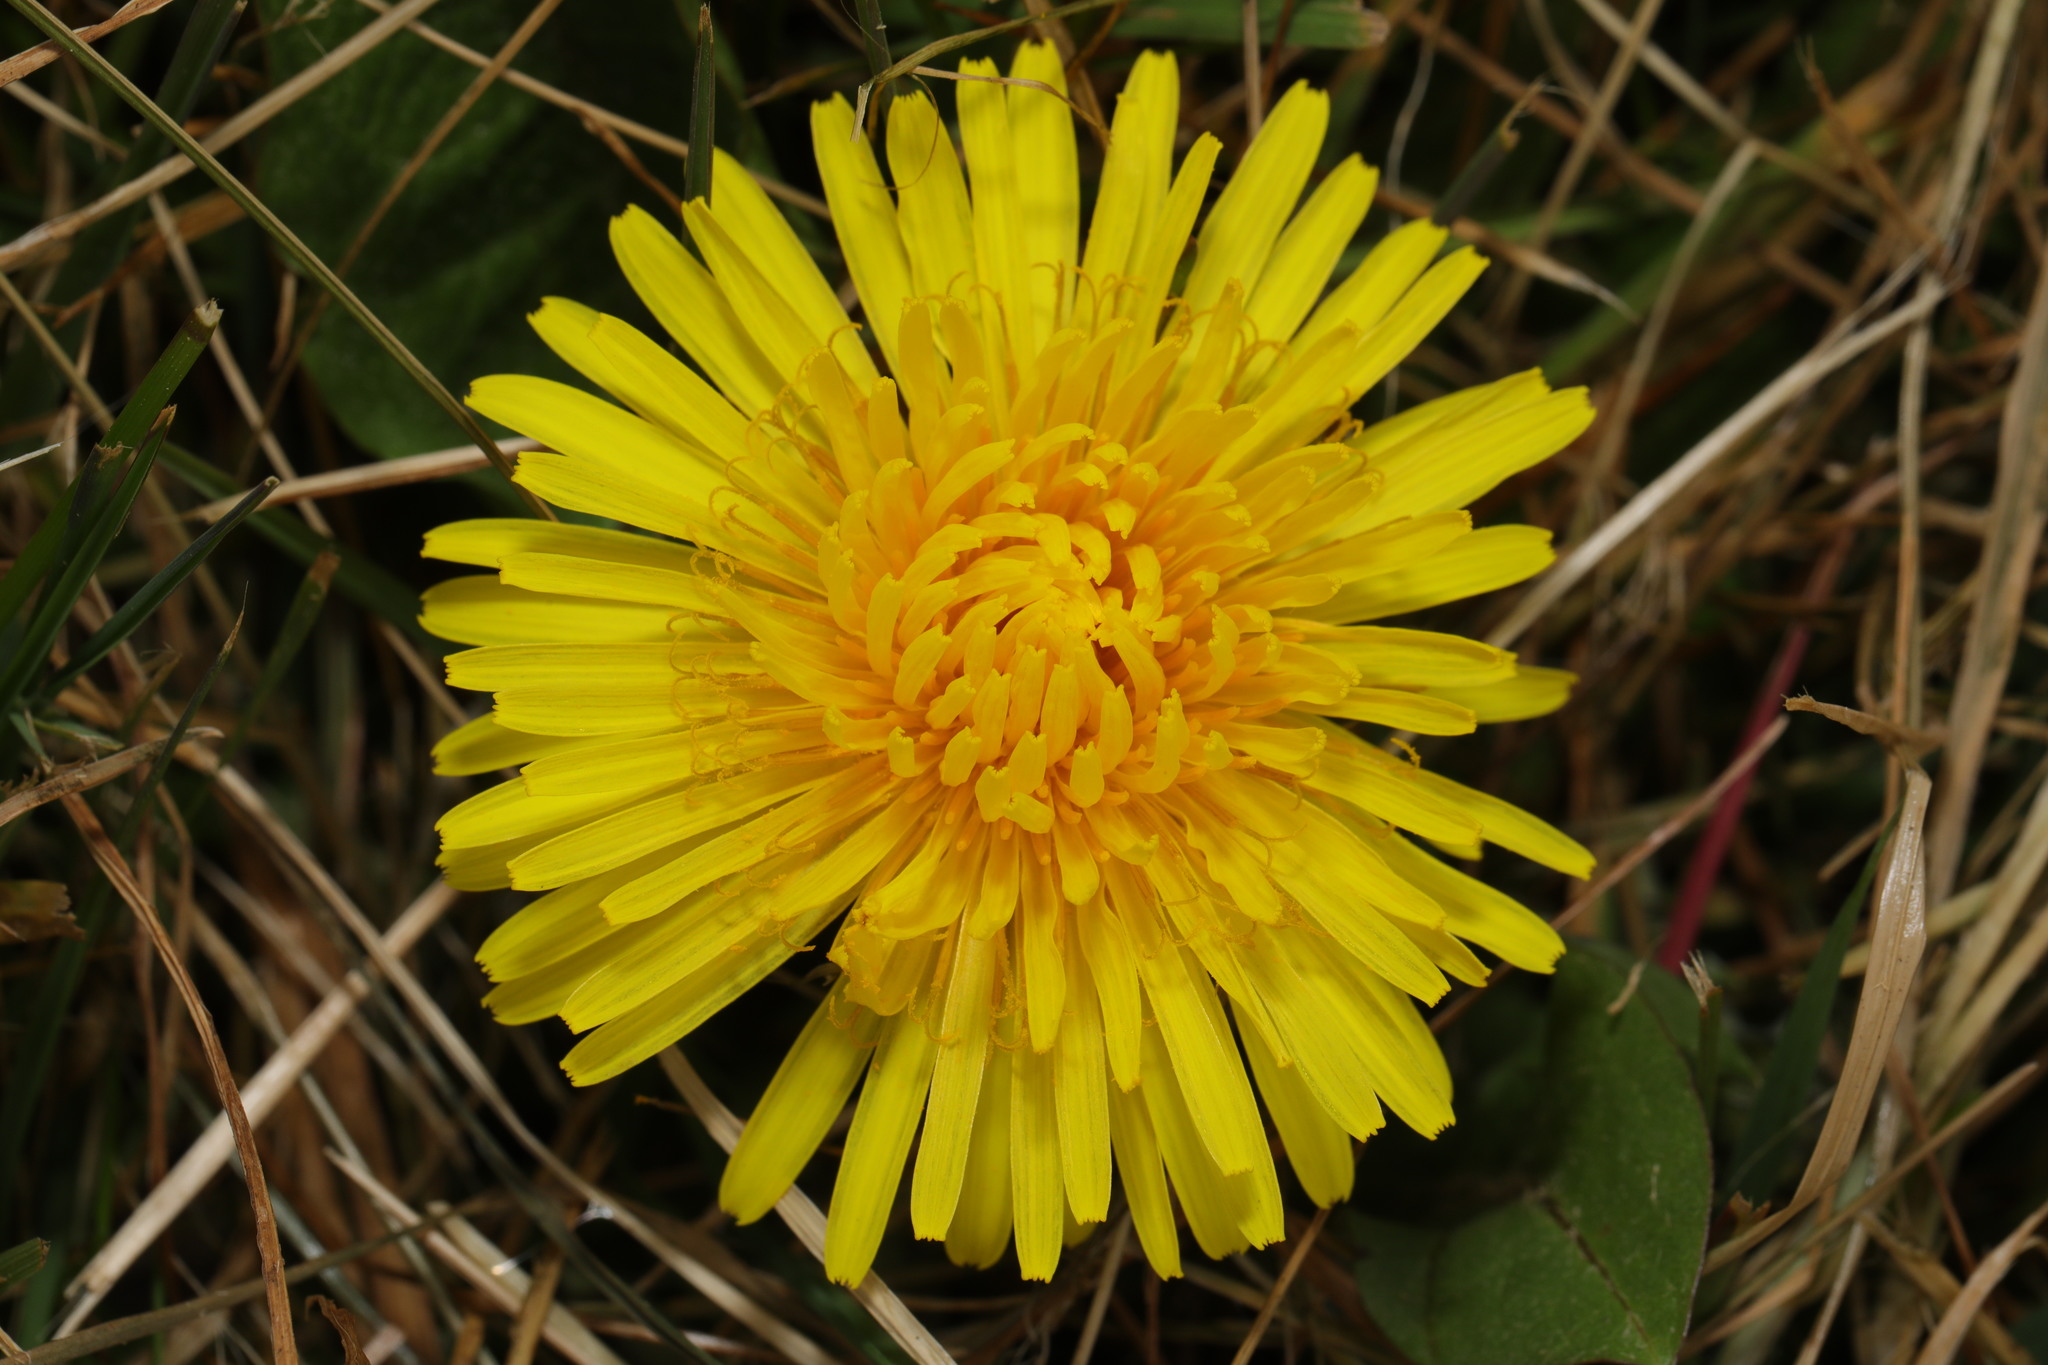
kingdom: Plantae
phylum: Tracheophyta
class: Magnoliopsida
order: Asterales
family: Asteraceae
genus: Taraxacum
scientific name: Taraxacum officinale
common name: Common dandelion
